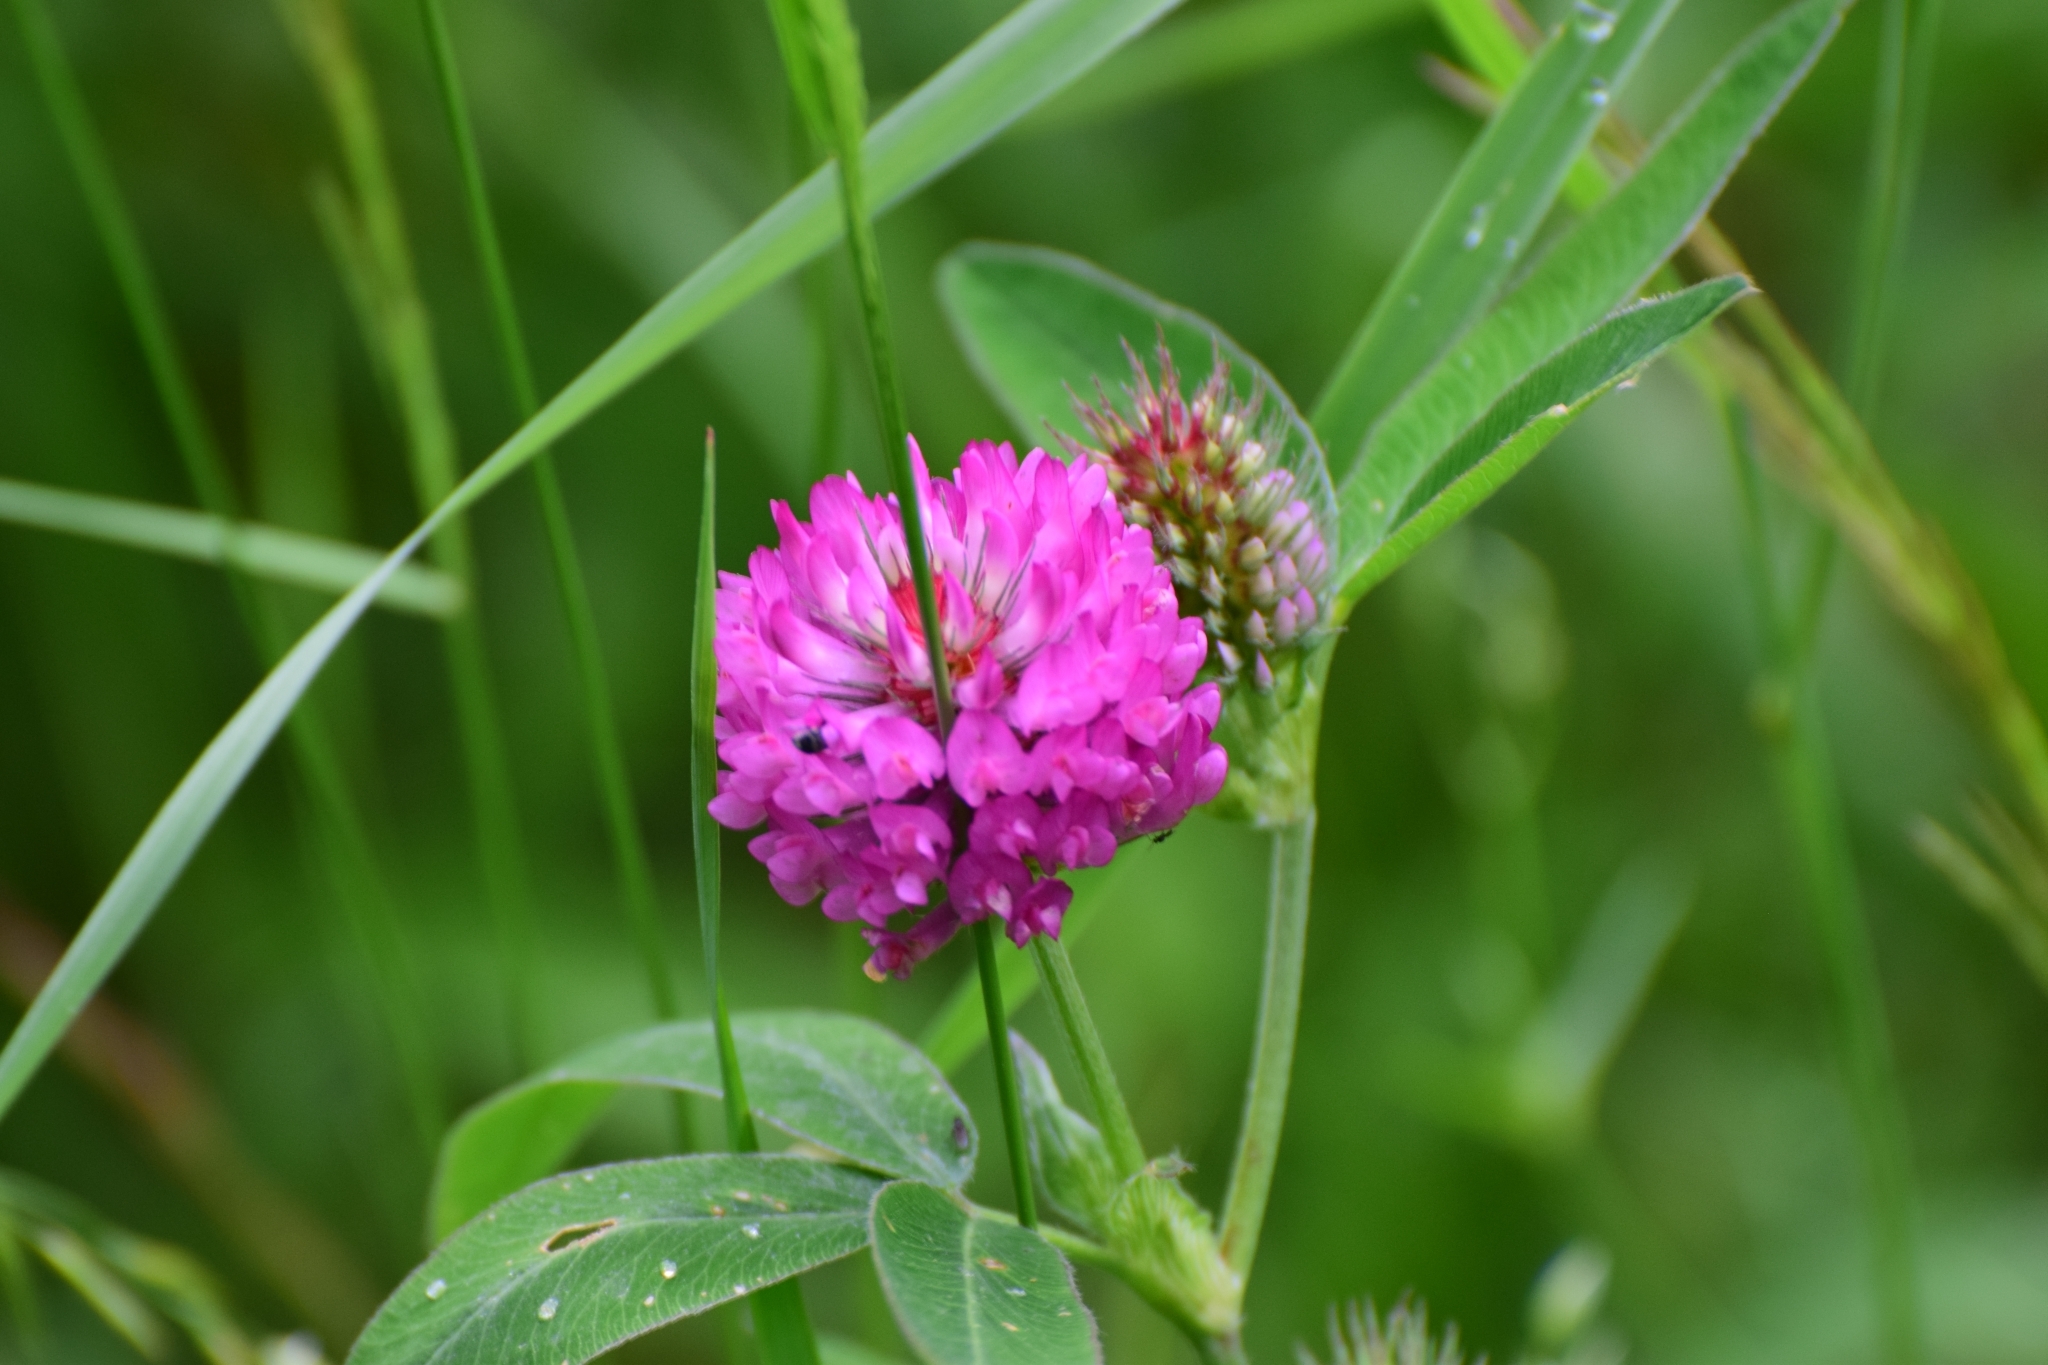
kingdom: Plantae
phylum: Tracheophyta
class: Magnoliopsida
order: Fabales
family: Fabaceae
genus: Trifolium
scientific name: Trifolium medium
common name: Zigzag clover
